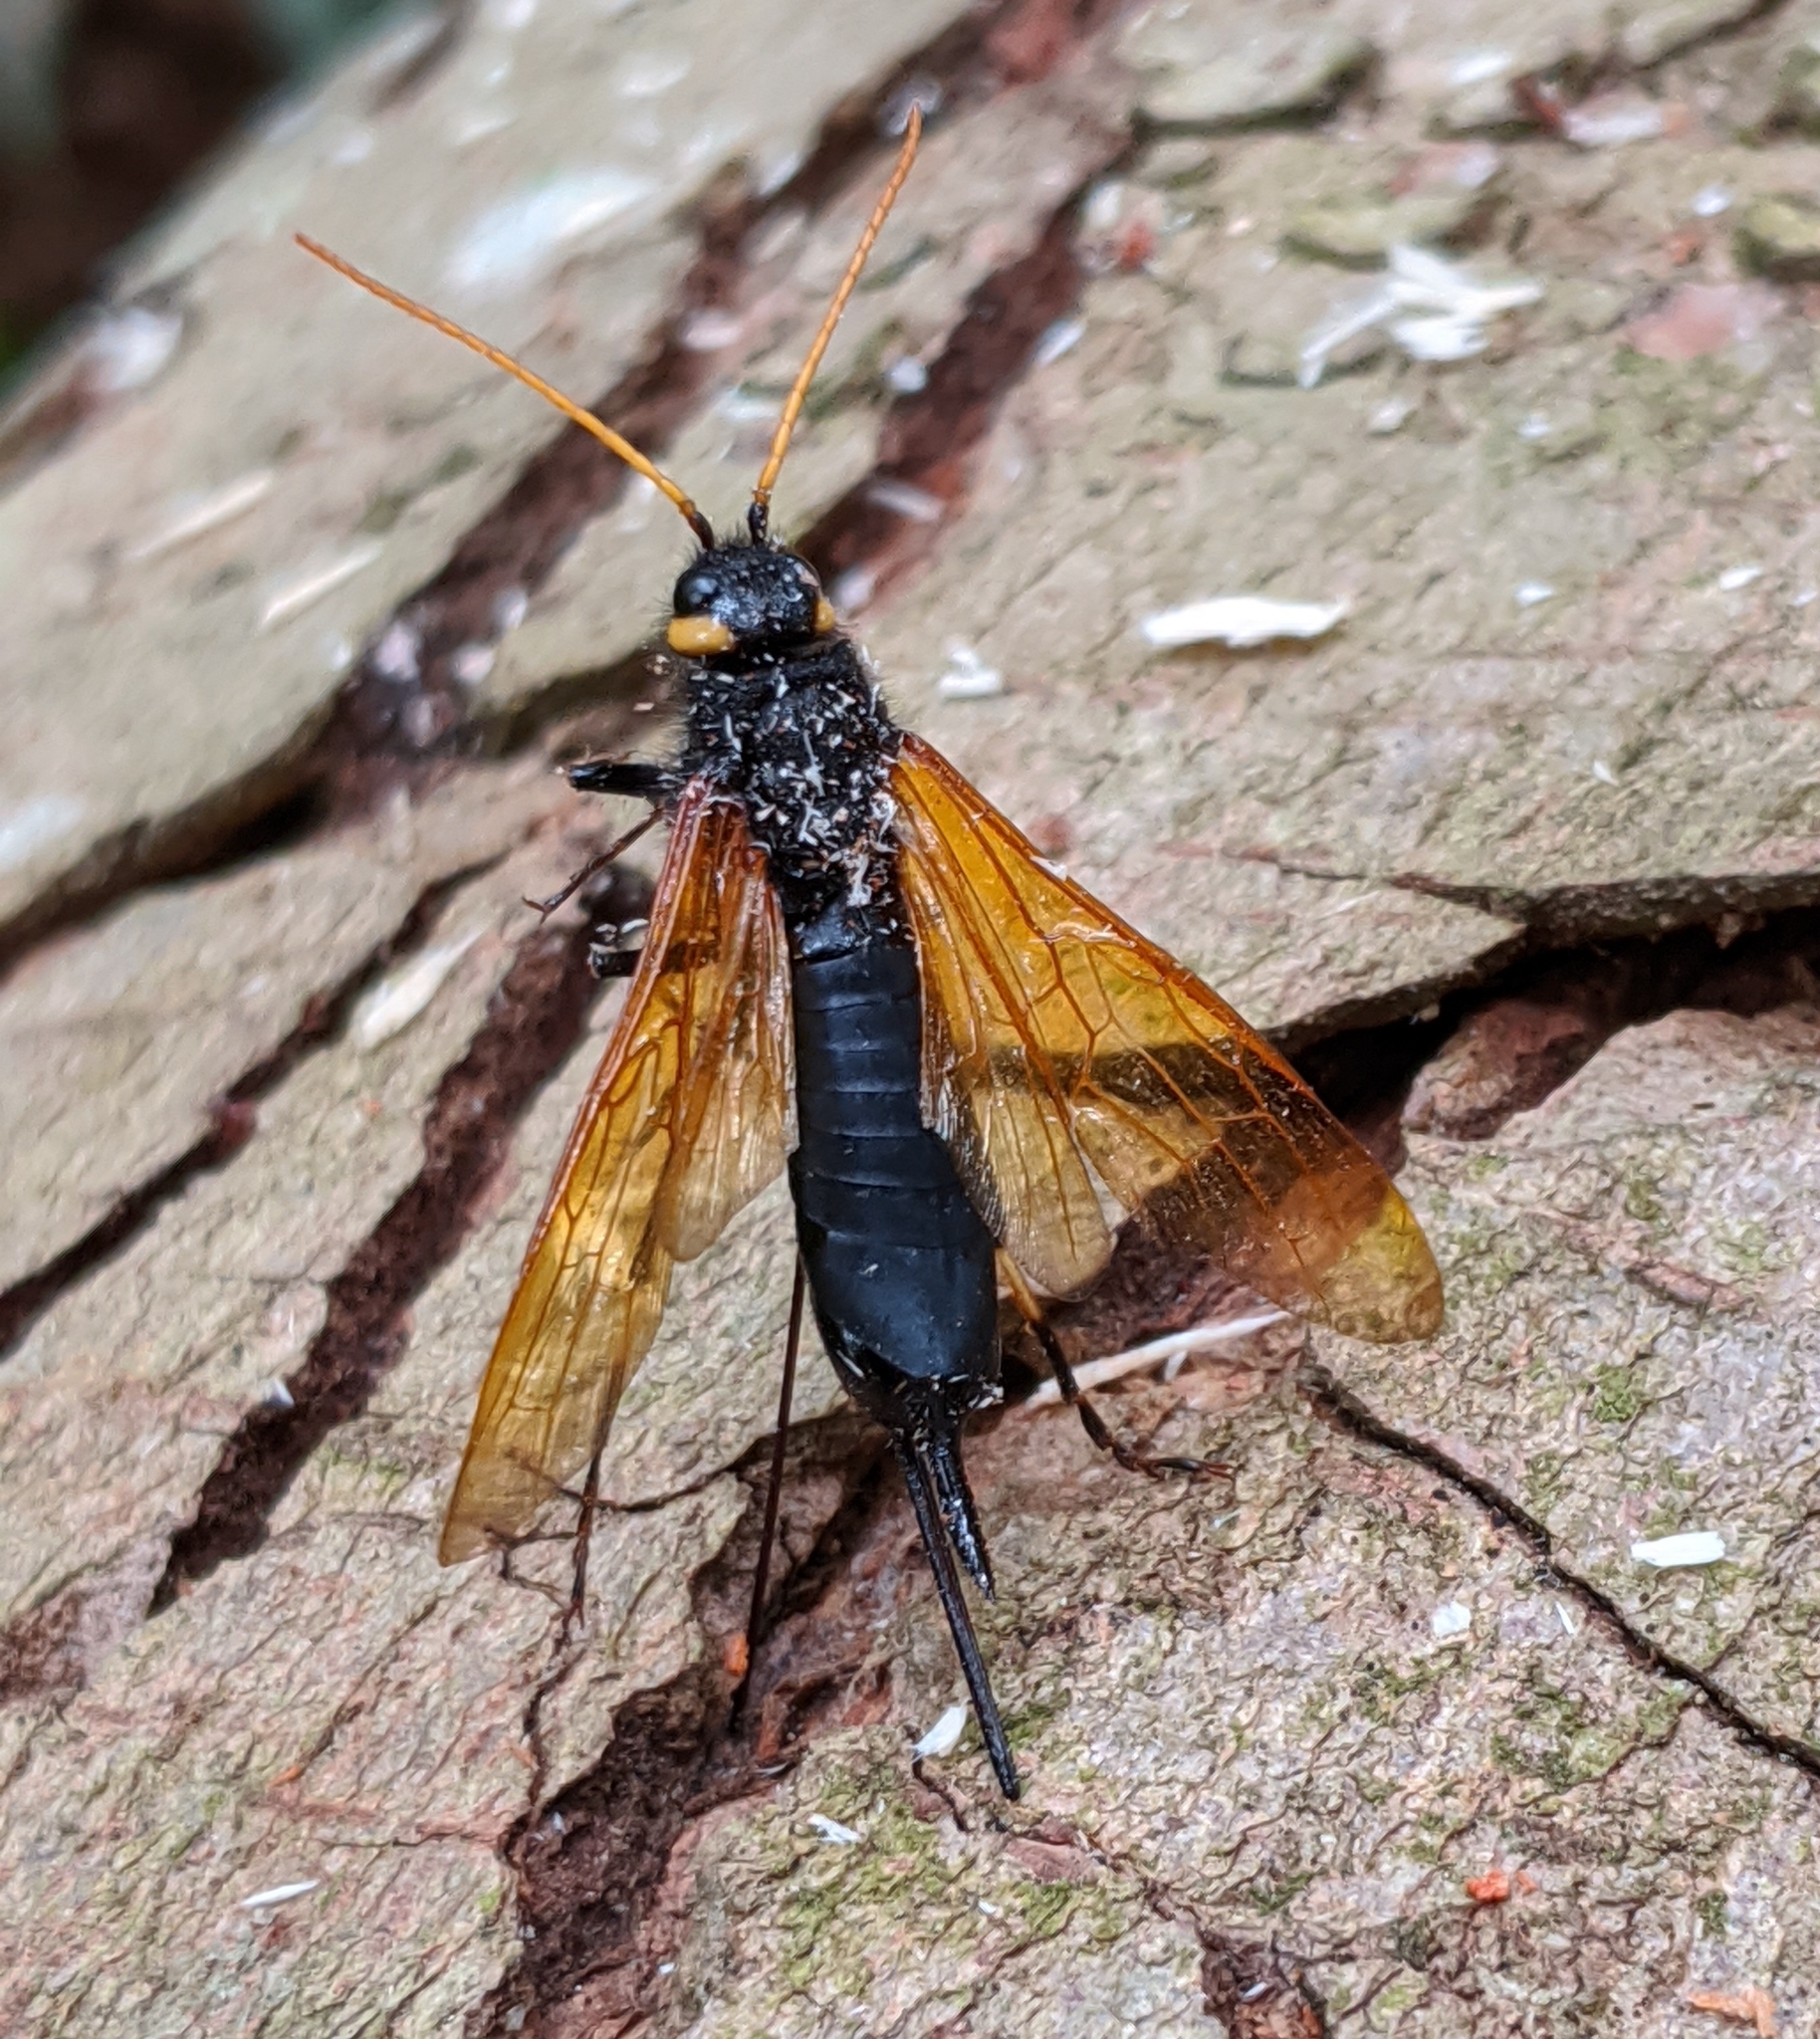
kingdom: Animalia
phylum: Arthropoda
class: Insecta
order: Hymenoptera
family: Siricidae
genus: Urocerus
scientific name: Urocerus californicus
